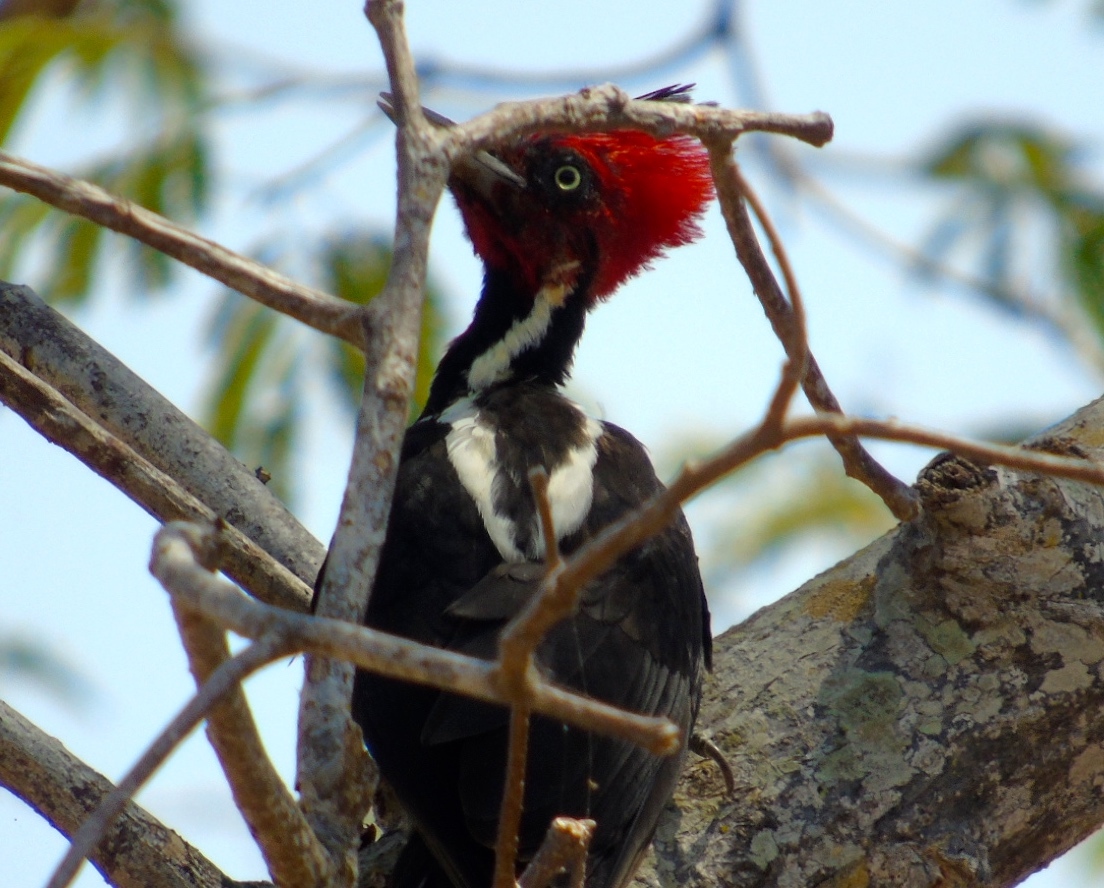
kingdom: Animalia
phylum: Chordata
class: Aves
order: Piciformes
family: Picidae
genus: Campephilus
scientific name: Campephilus guatemalensis
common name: Pale-billed woodpecker
